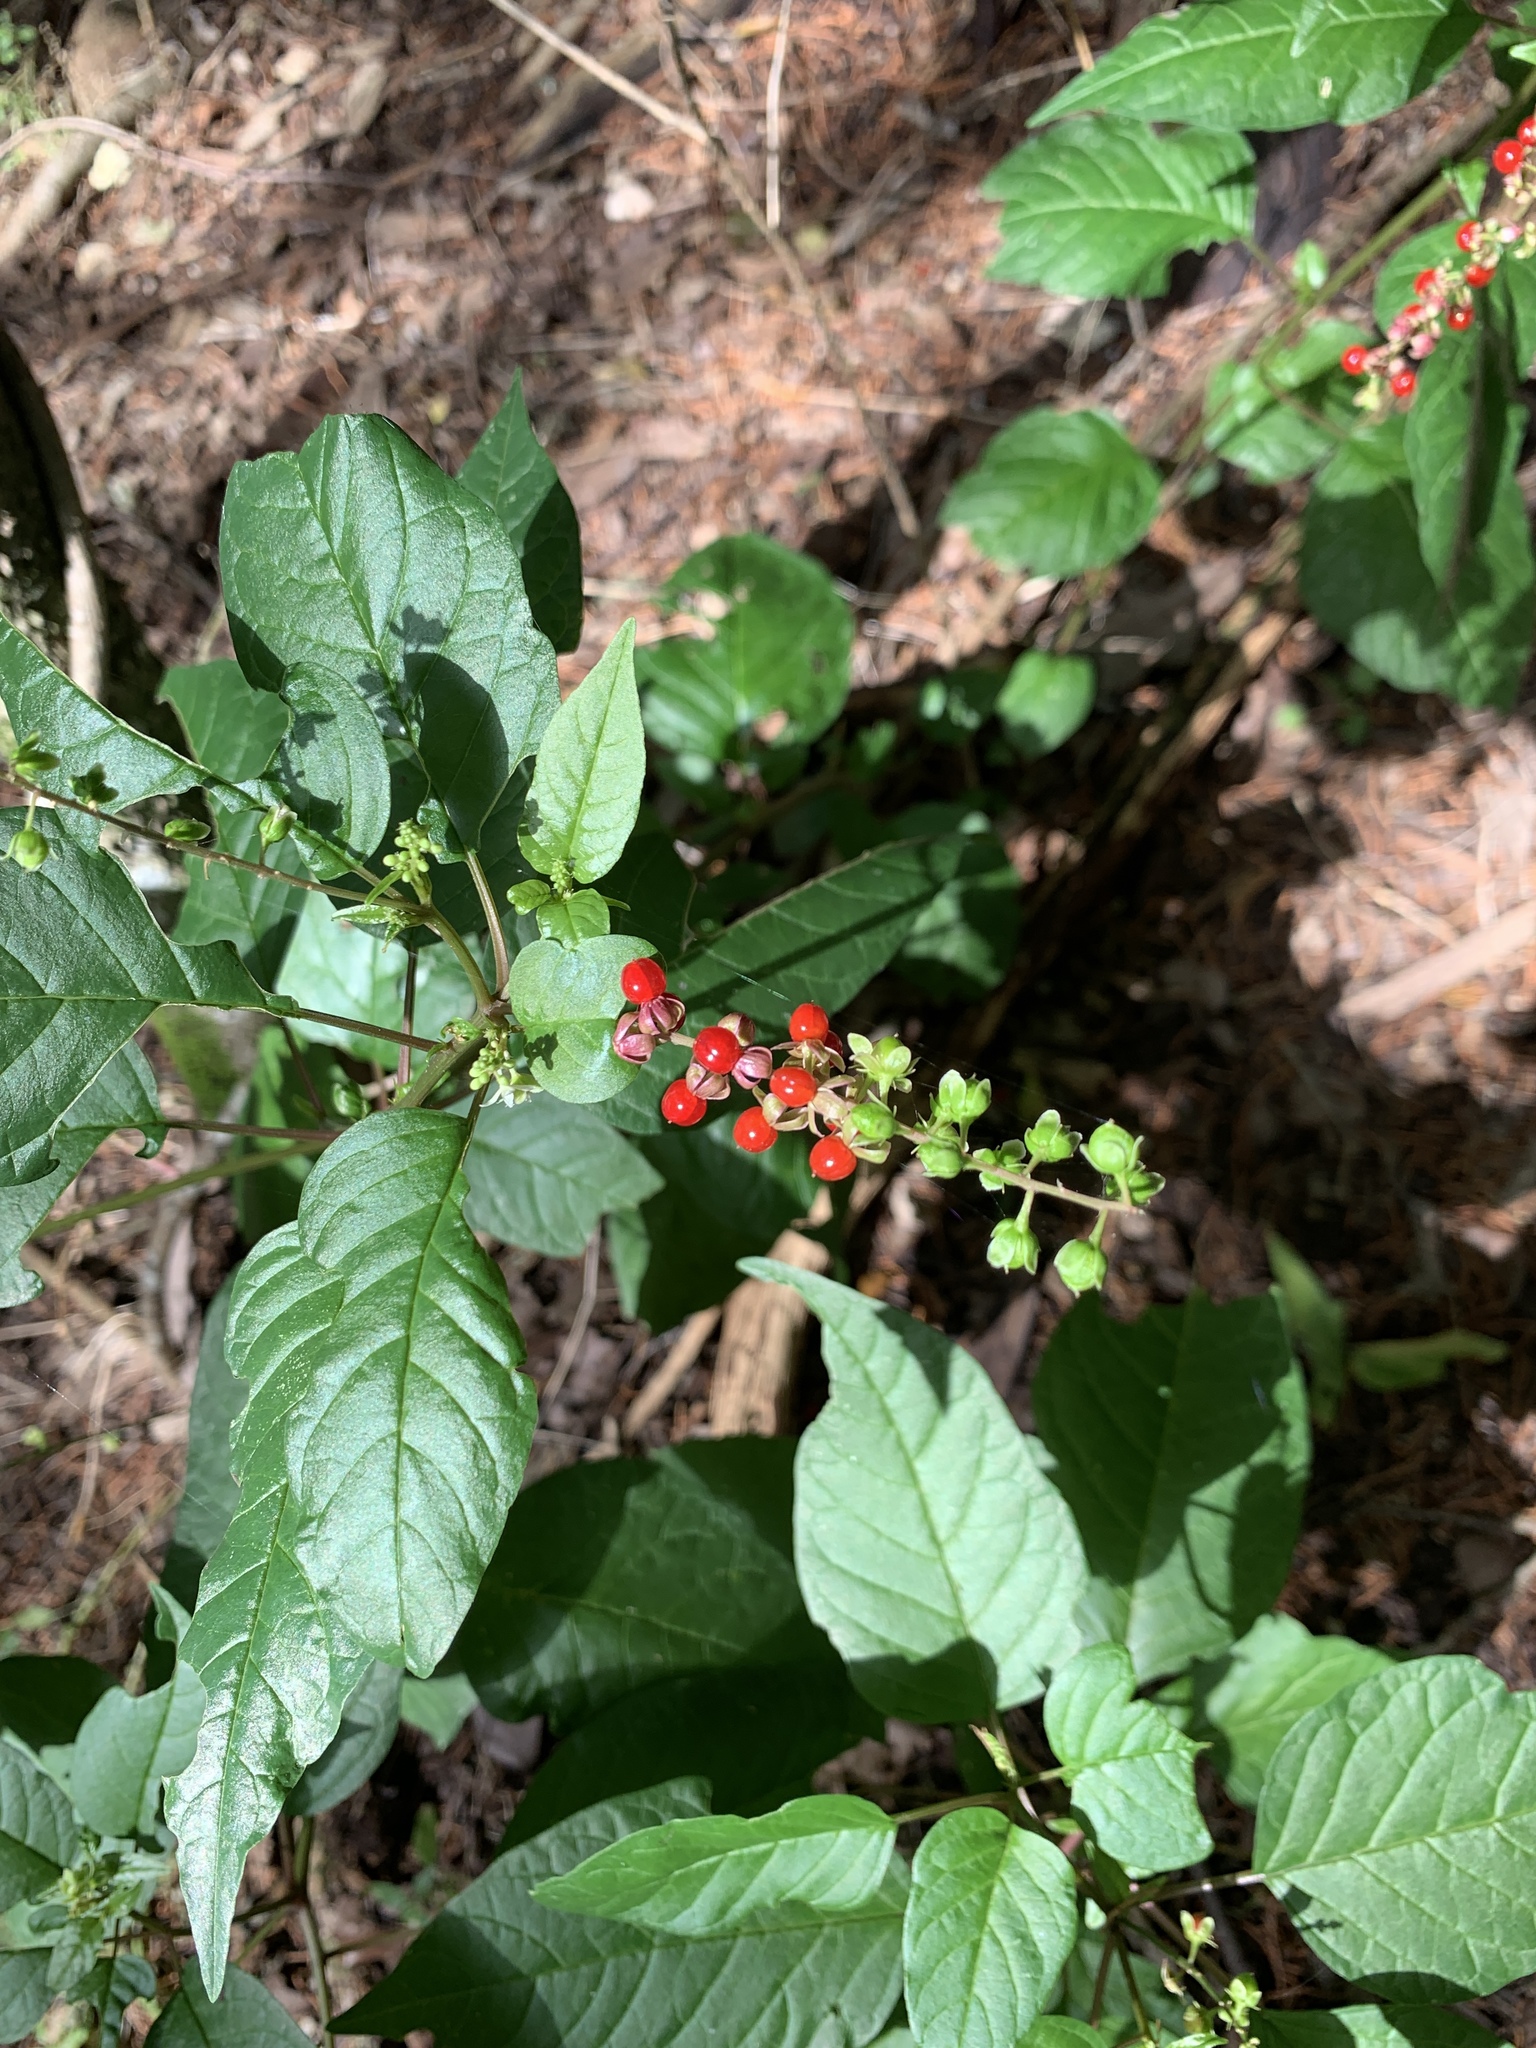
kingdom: Plantae
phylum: Tracheophyta
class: Magnoliopsida
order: Caryophyllales
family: Phytolaccaceae
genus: Rivina
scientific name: Rivina humilis
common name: Rougeplant
